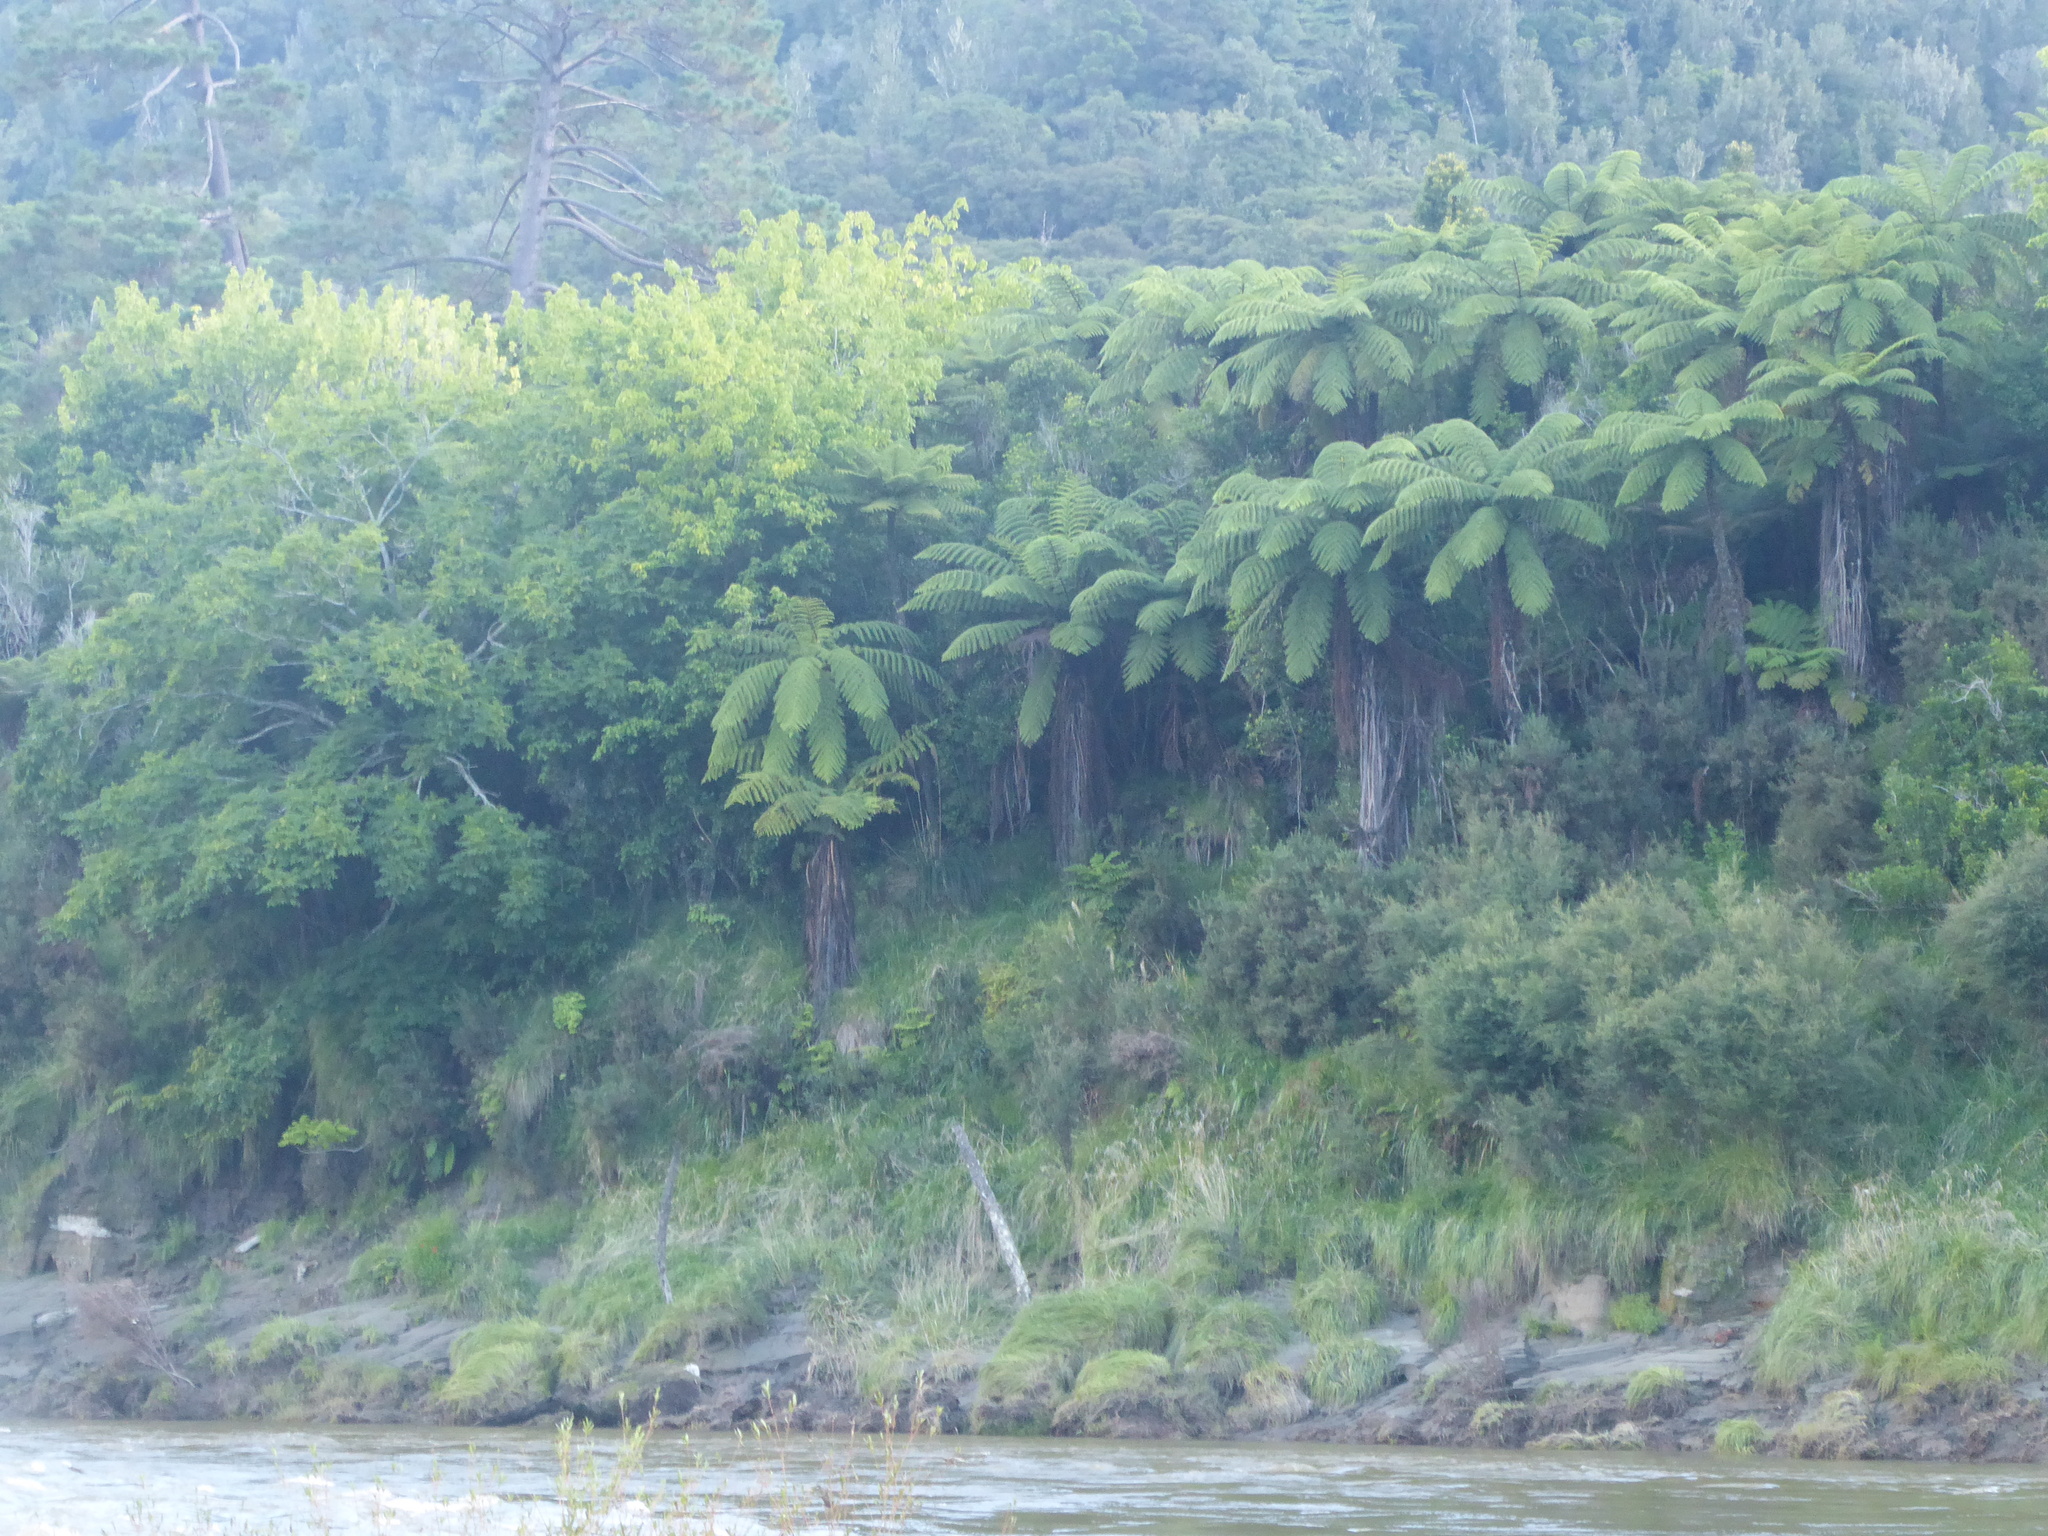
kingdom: Plantae
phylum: Tracheophyta
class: Polypodiopsida
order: Cyatheales
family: Cyatheaceae
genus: Sphaeropteris
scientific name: Sphaeropteris medullaris
